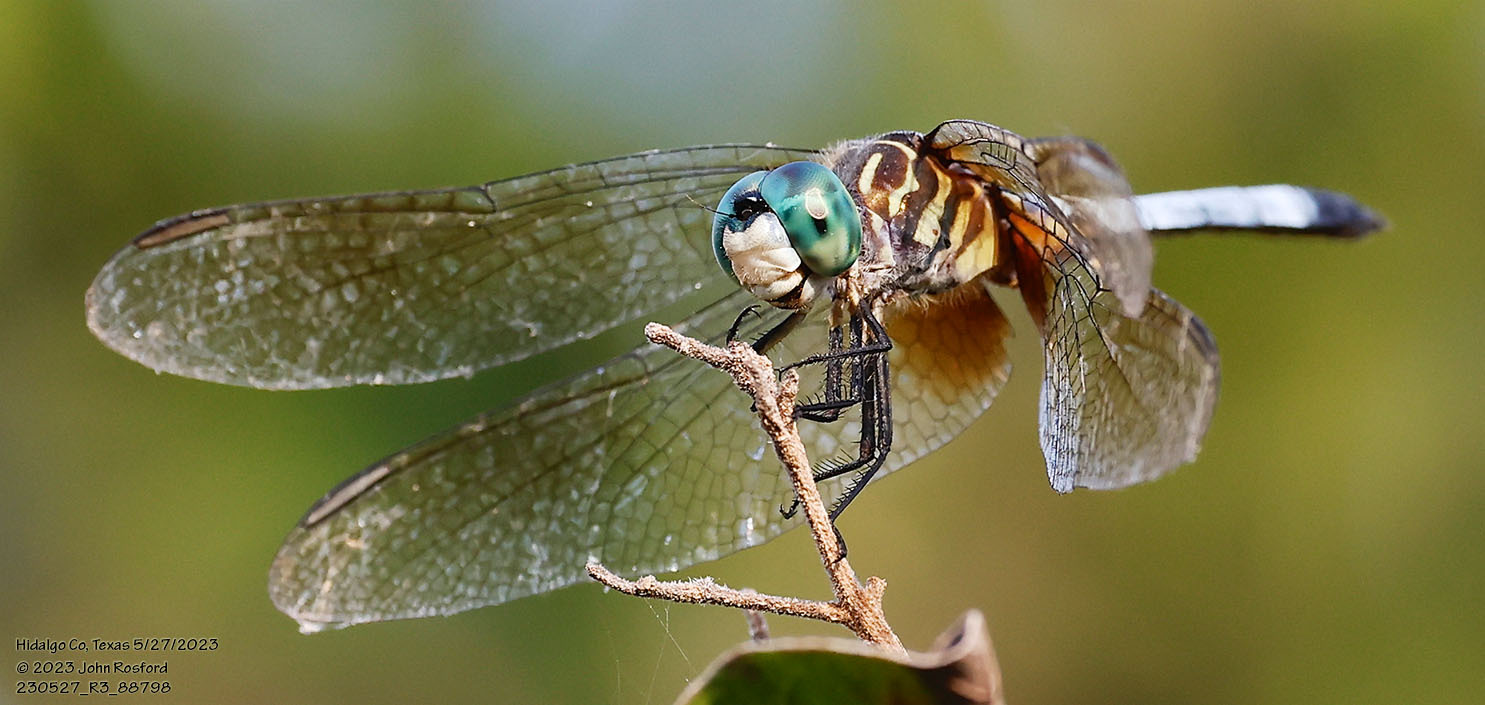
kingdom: Animalia
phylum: Arthropoda
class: Insecta
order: Odonata
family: Libellulidae
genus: Pachydiplax
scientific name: Pachydiplax longipennis
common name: Blue dasher
